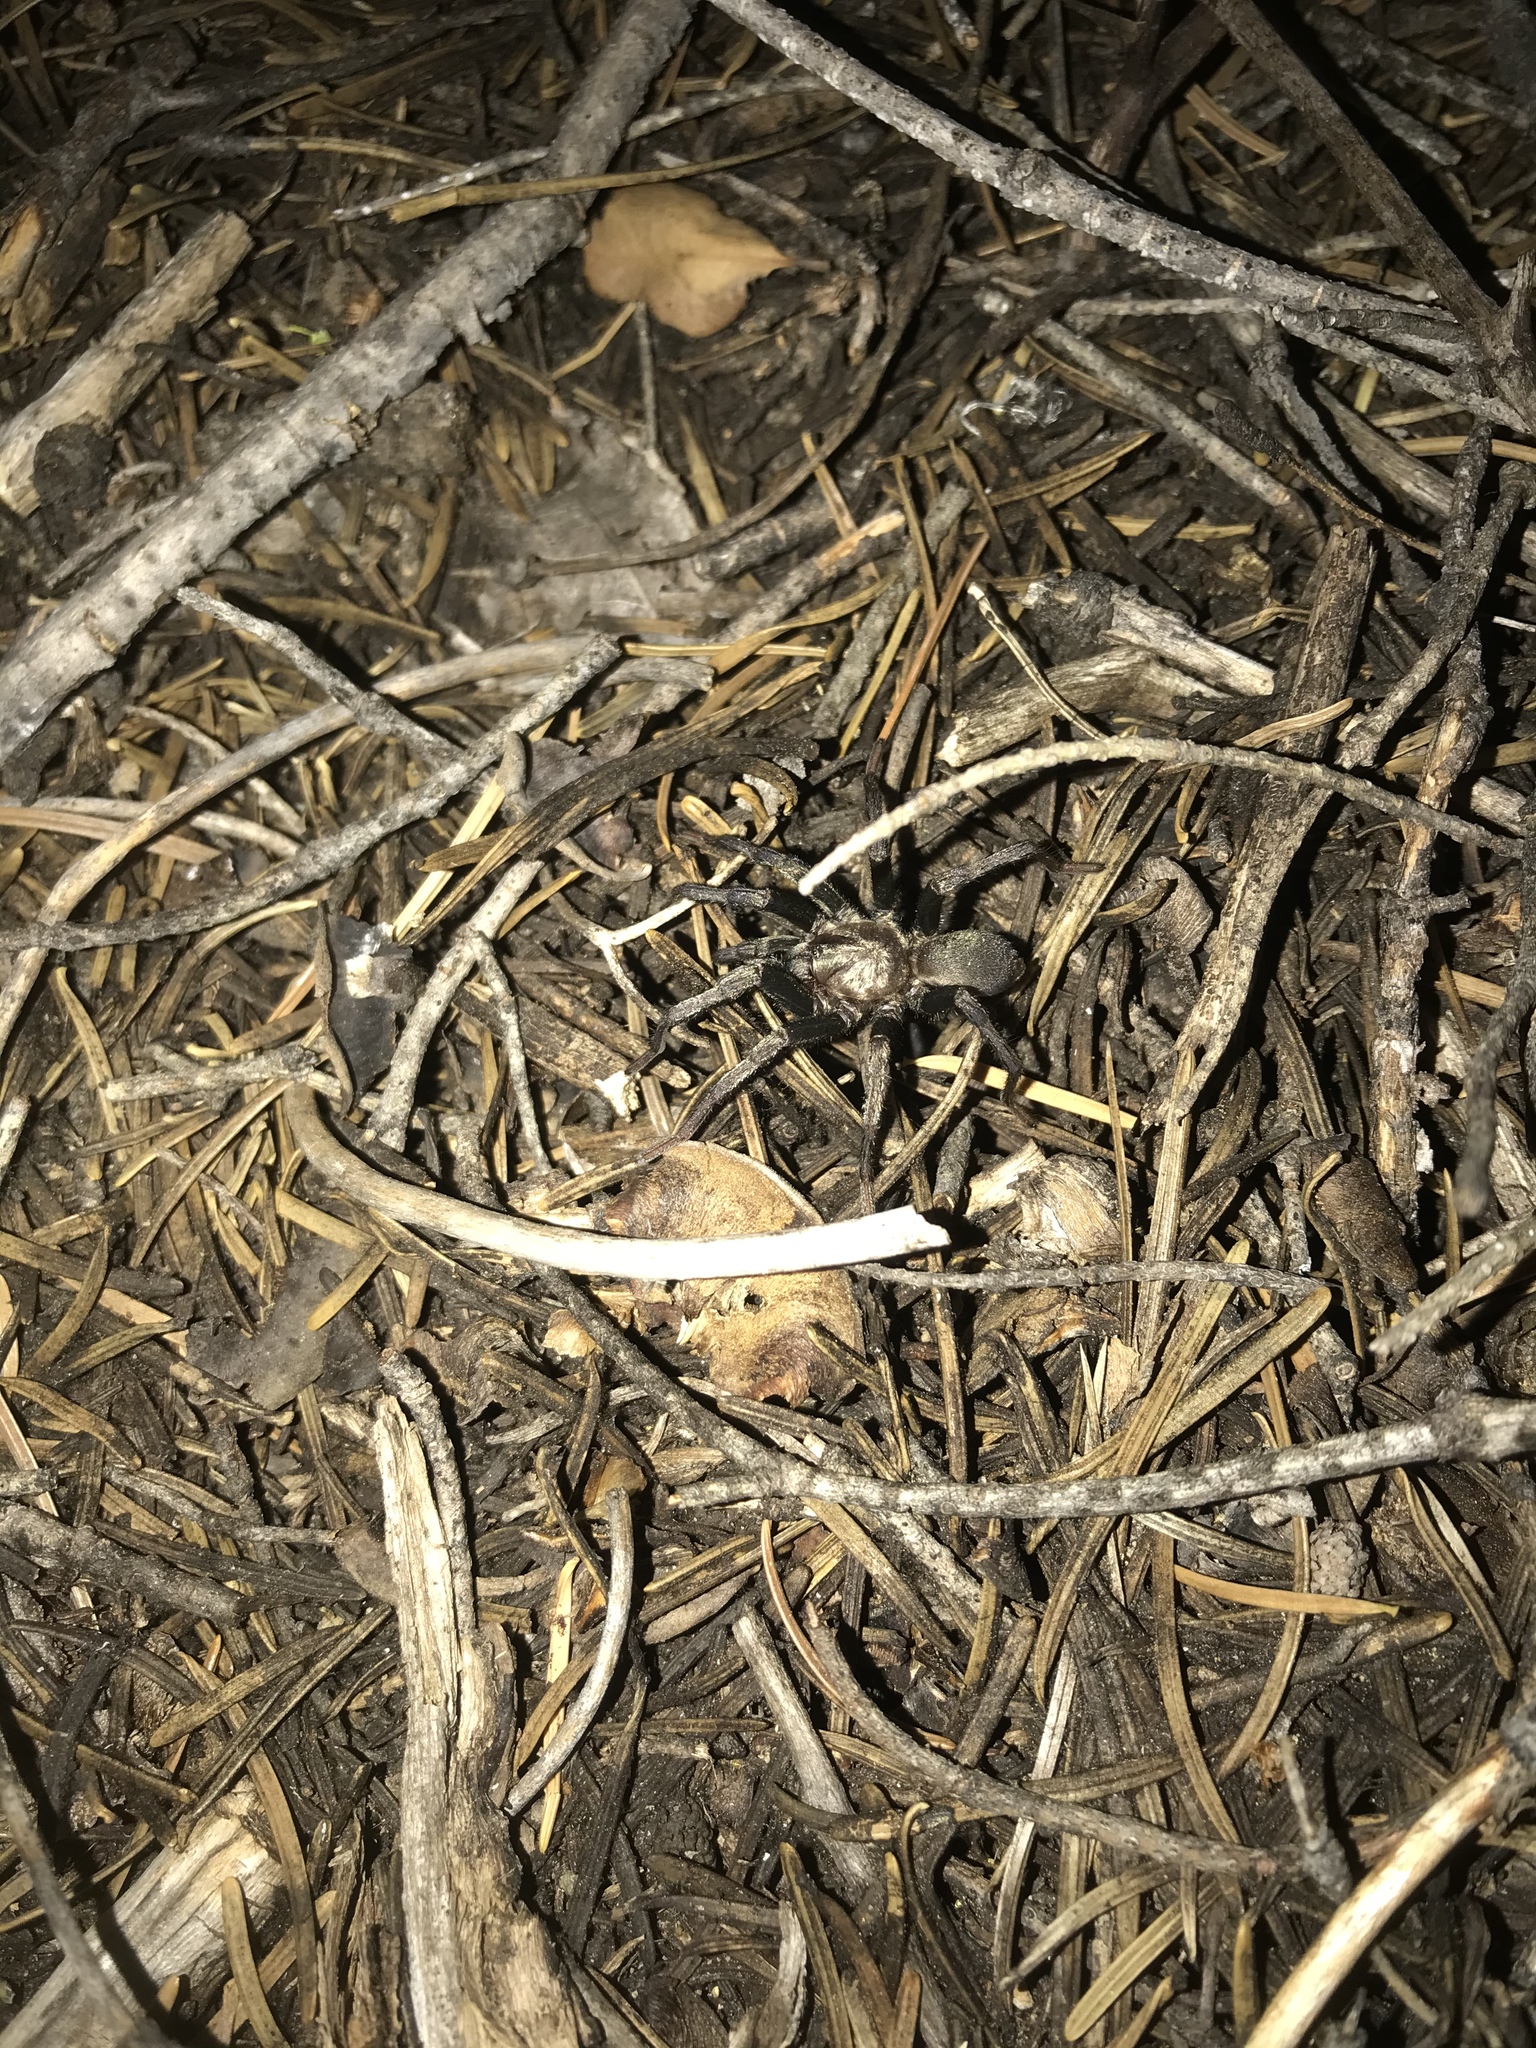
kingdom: Animalia
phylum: Arthropoda
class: Arachnida
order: Araneae
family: Nemesiidae
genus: Calisoga
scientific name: Calisoga longitarsis
